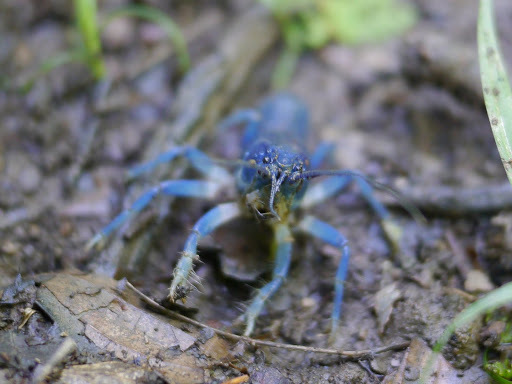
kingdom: Animalia
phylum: Arthropoda
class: Malacostraca
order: Decapoda
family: Cambaridae
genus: Cambarus
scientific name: Cambarus fetzneri
